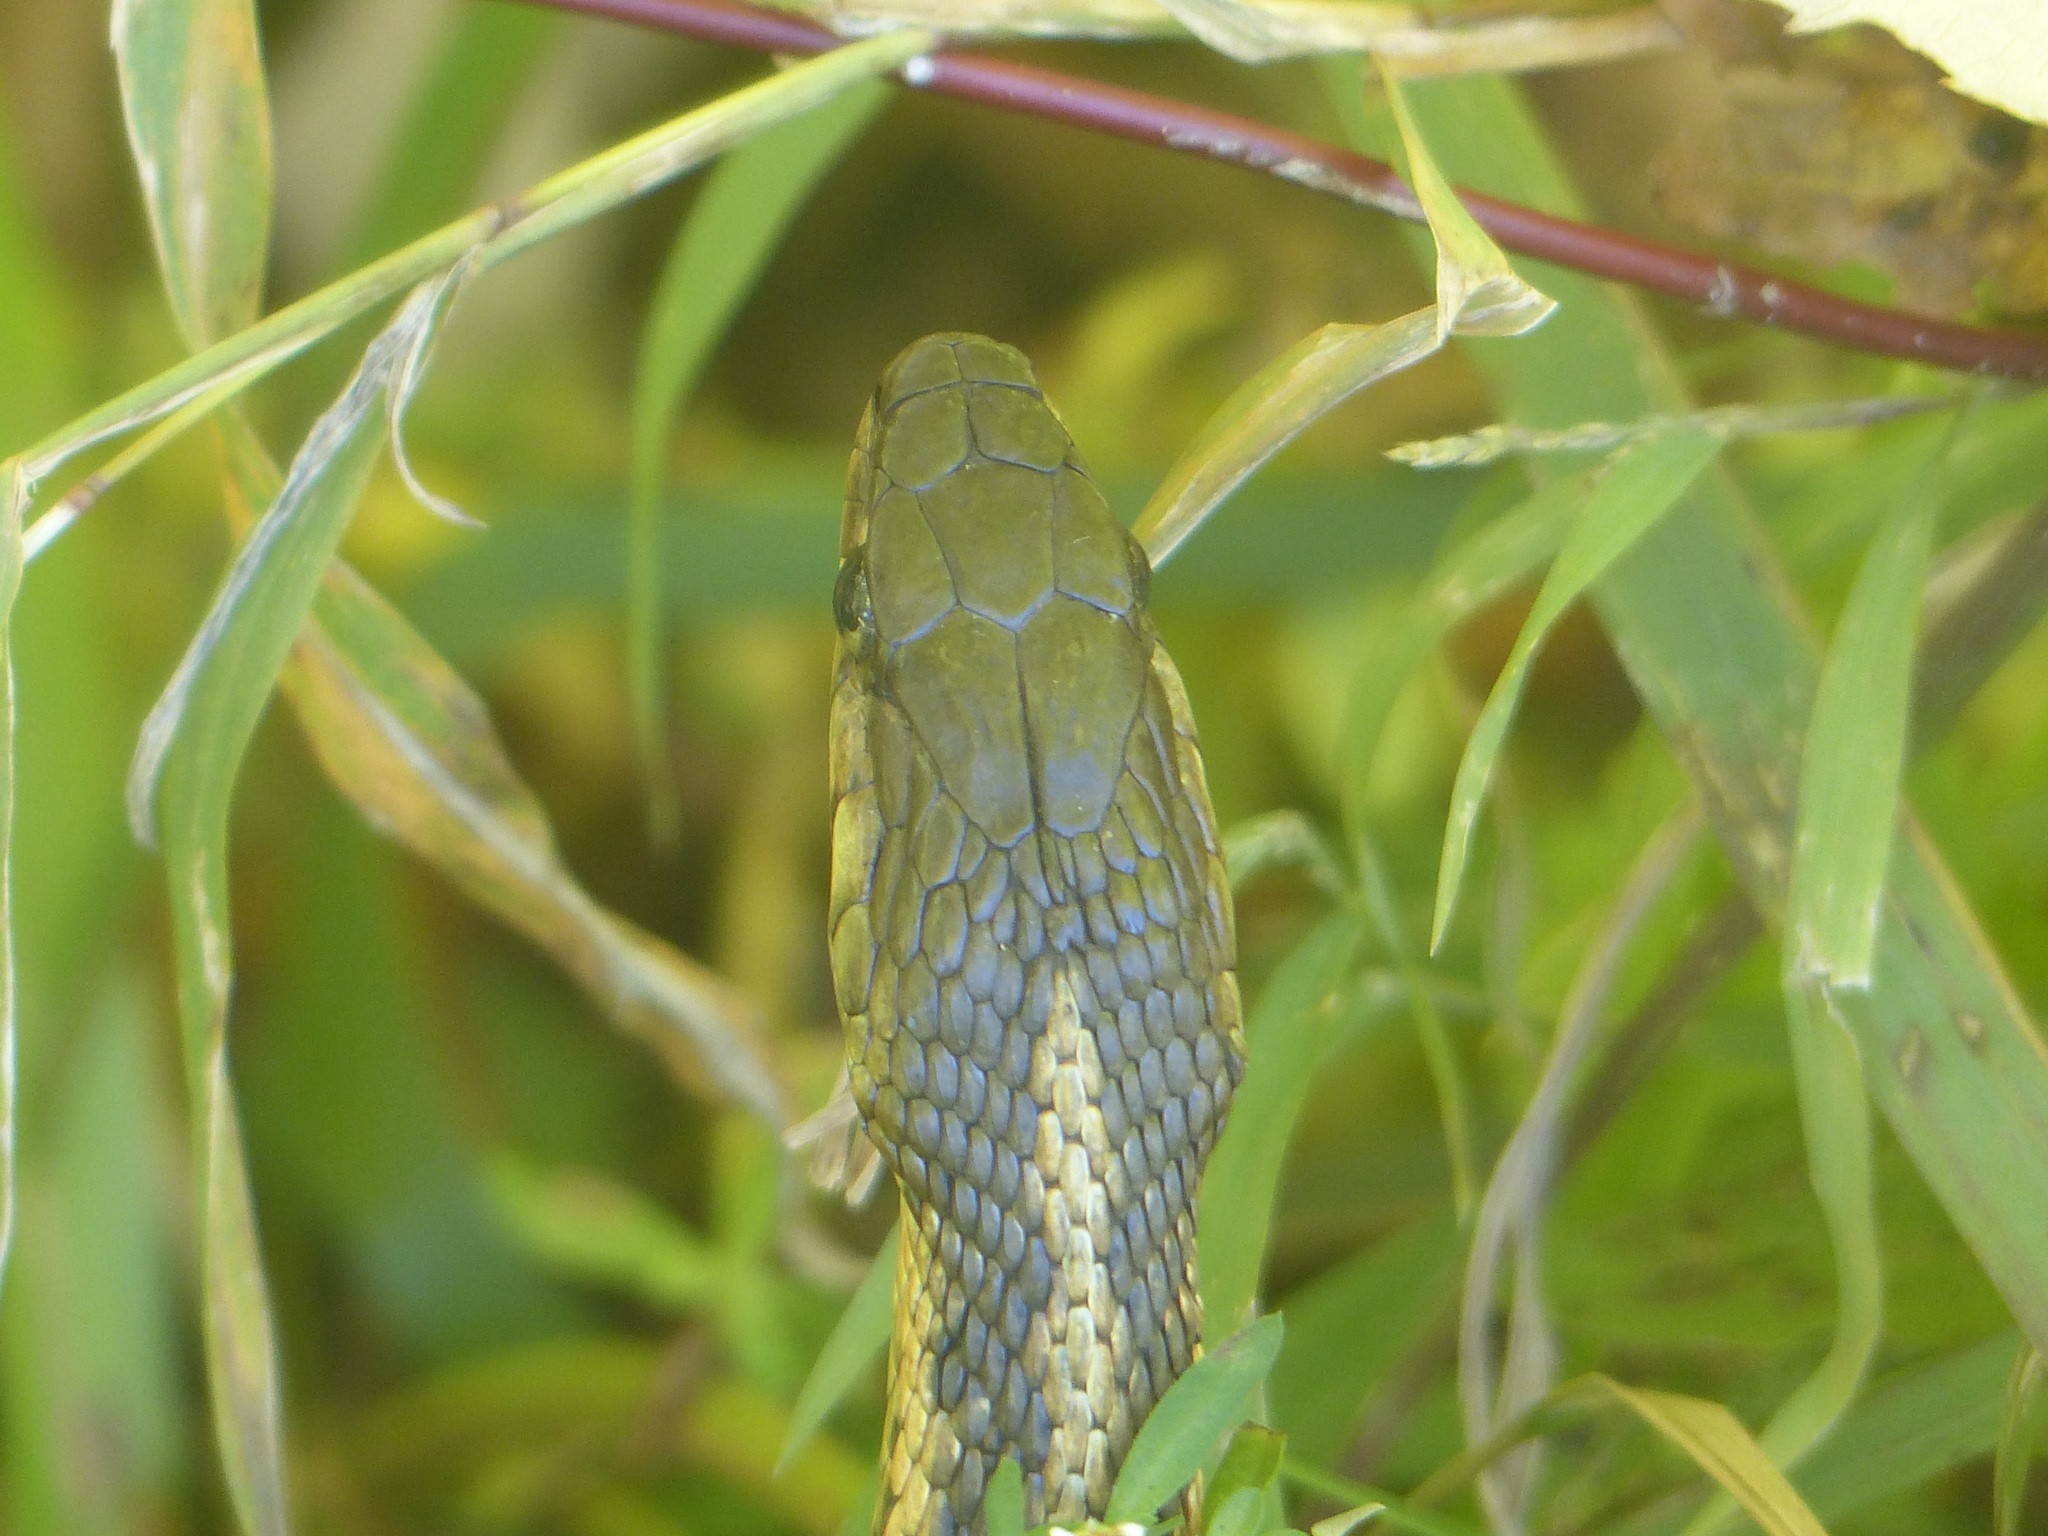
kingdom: Animalia
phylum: Chordata
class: Squamata
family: Colubridae
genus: Thamnophis
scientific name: Thamnophis sirtalis
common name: Common garter snake
